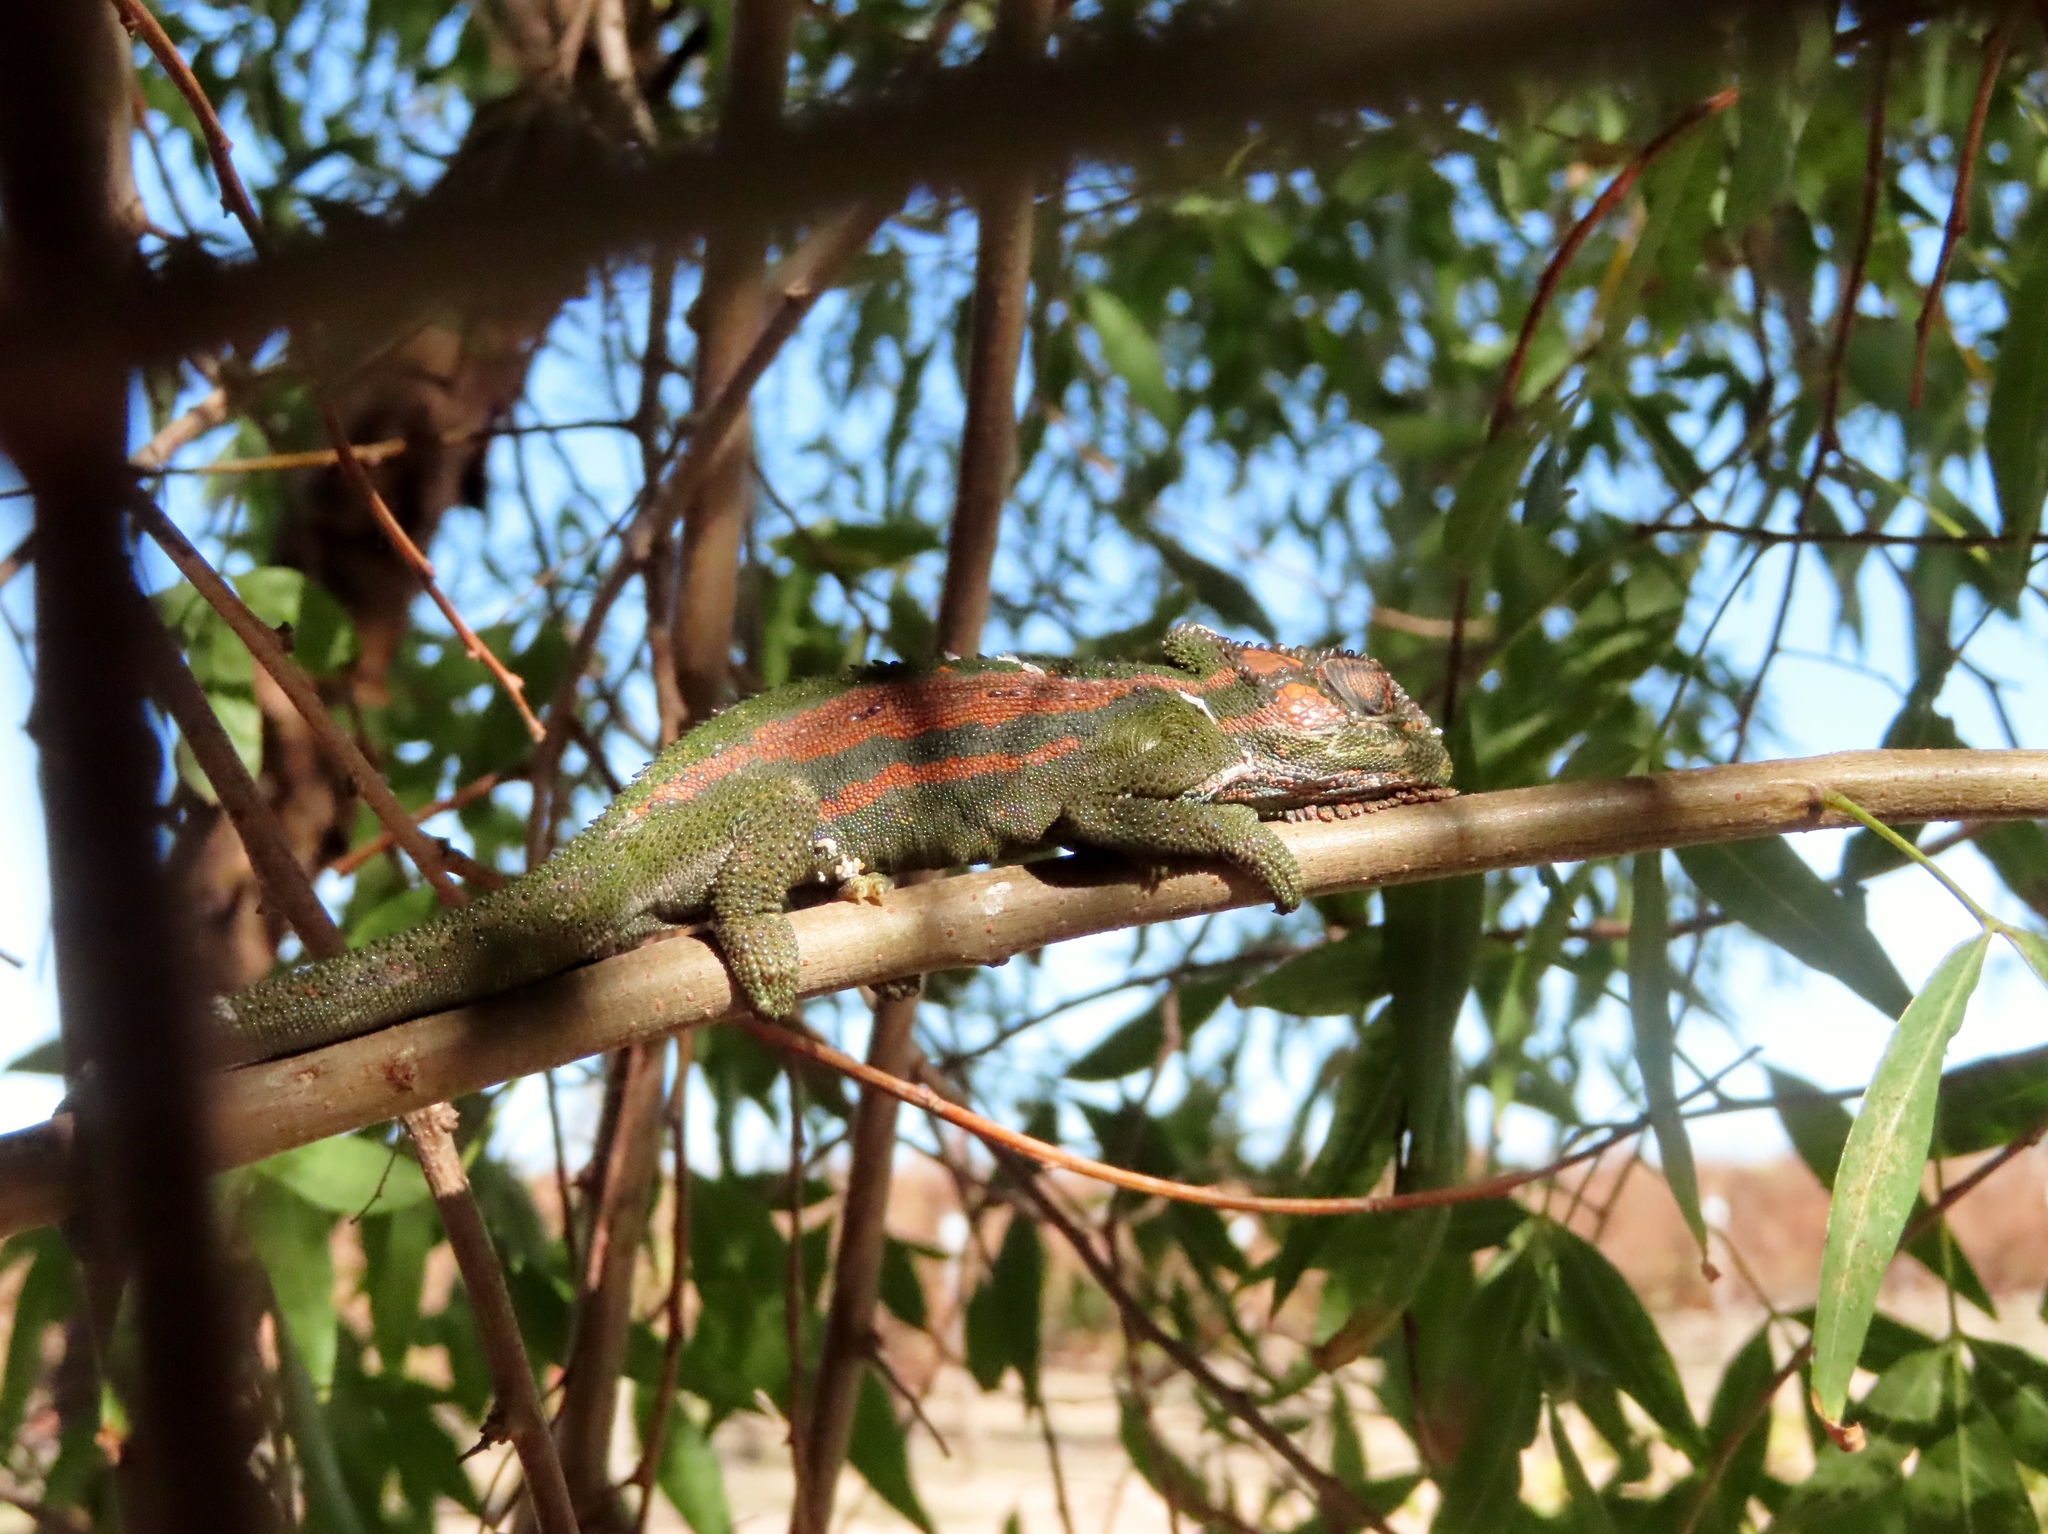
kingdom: Animalia
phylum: Chordata
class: Squamata
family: Chamaeleonidae
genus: Bradypodion
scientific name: Bradypodion pumilum
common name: Cape dwarf chameleon
